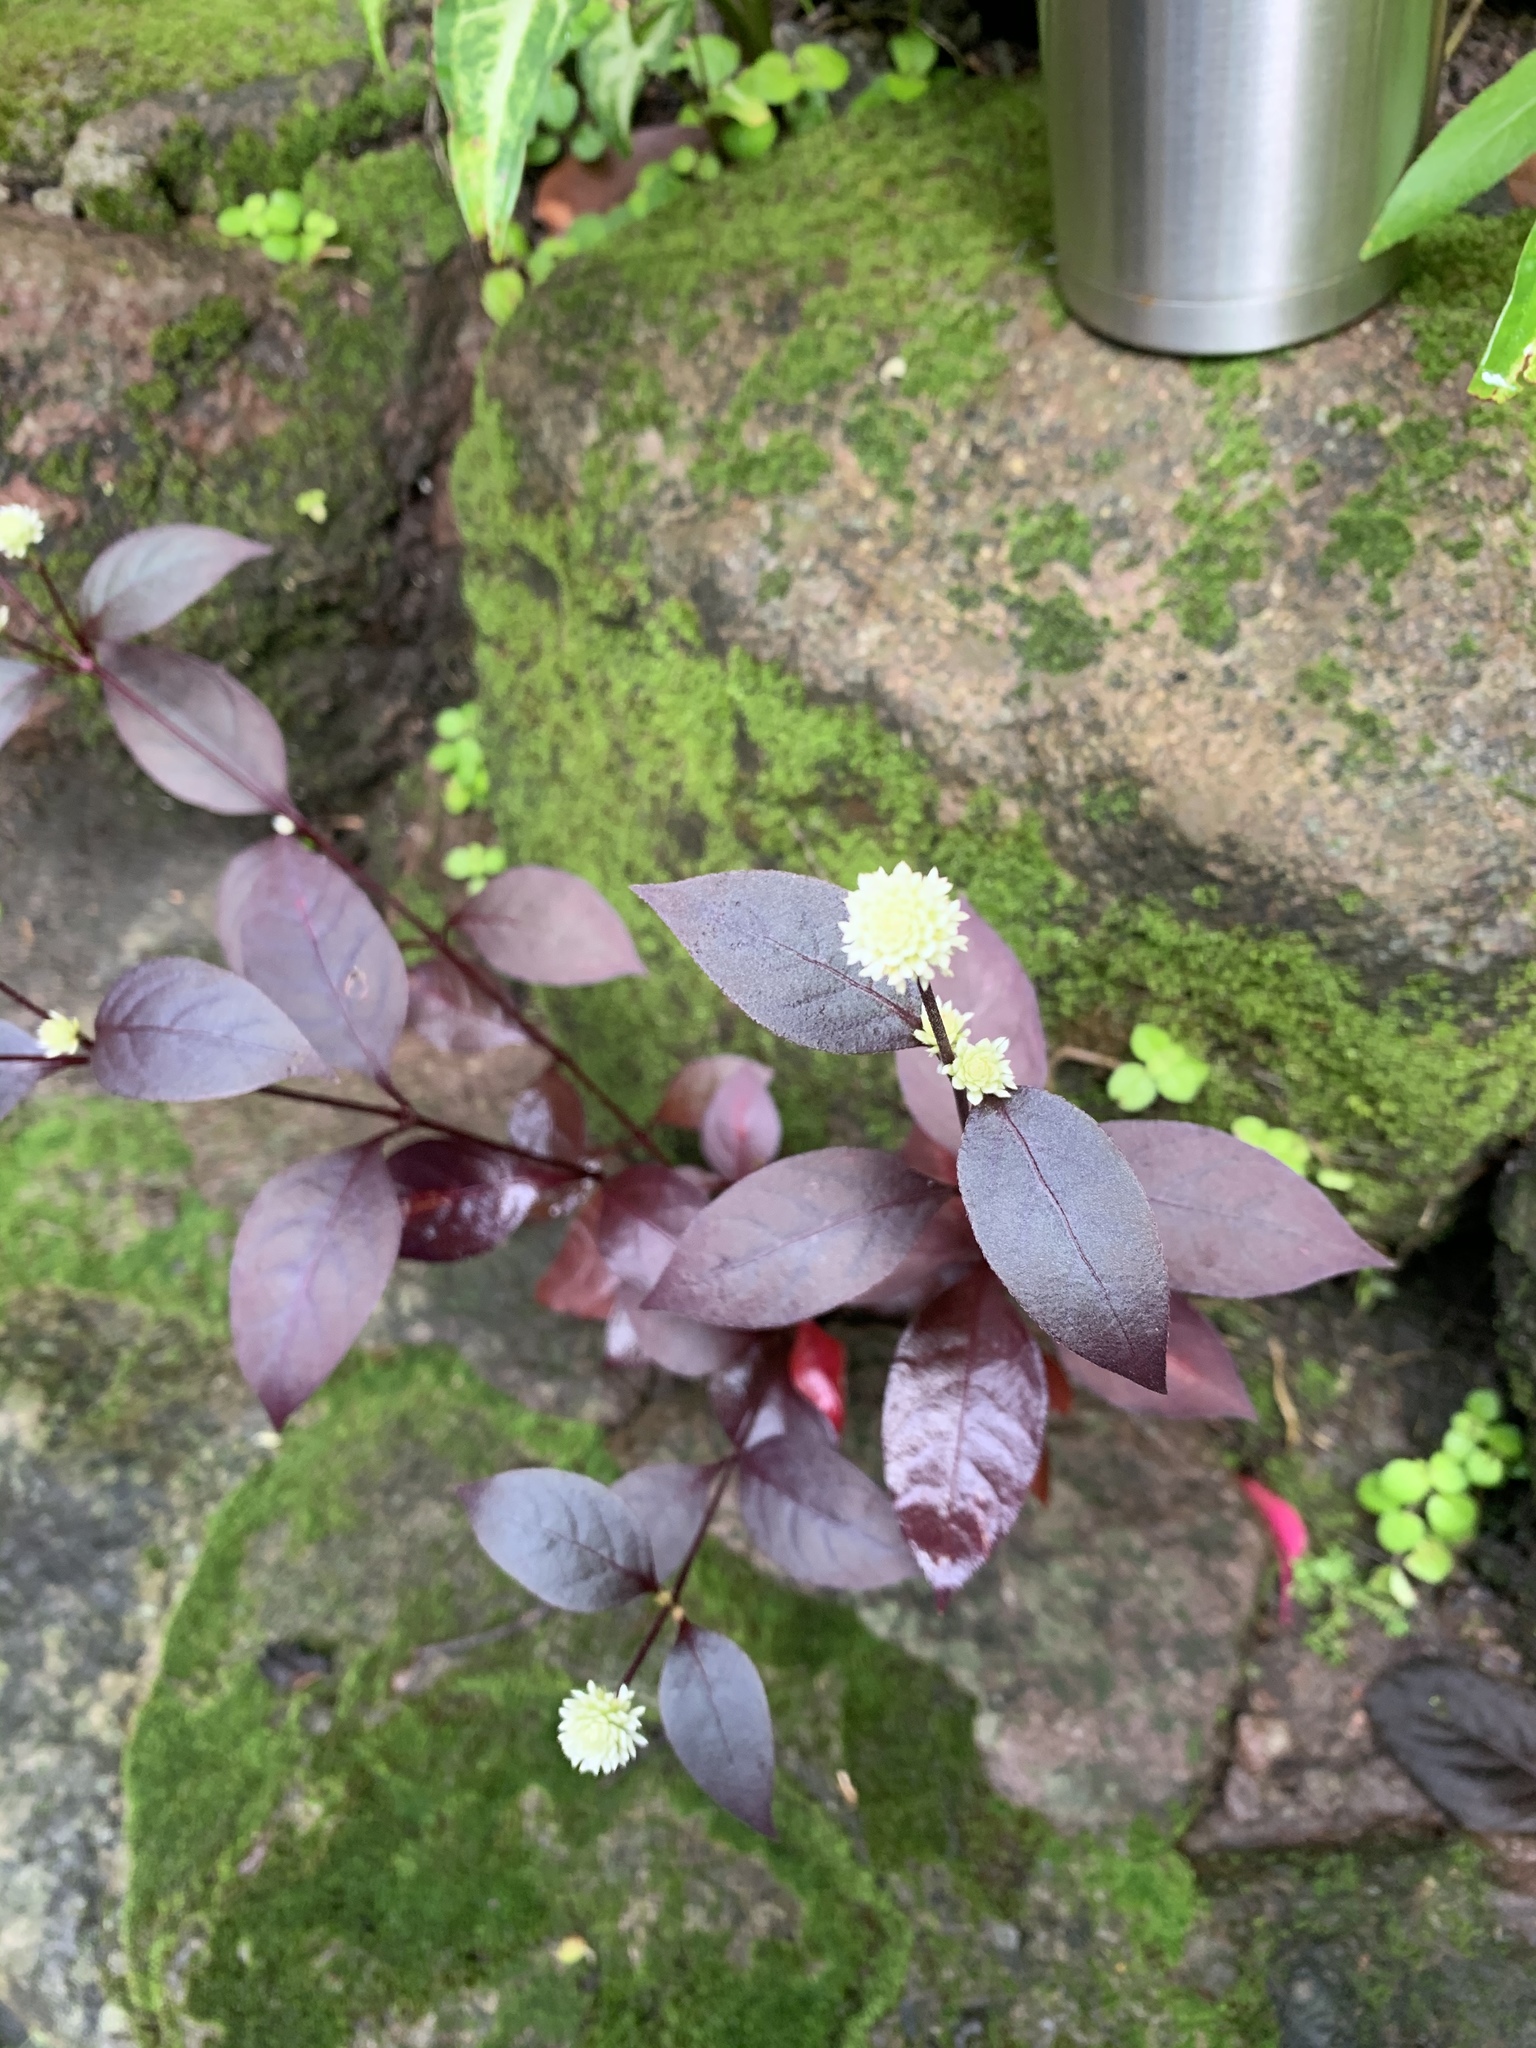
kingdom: Plantae
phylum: Tracheophyta
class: Magnoliopsida
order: Caryophyllales
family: Amaranthaceae
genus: Alternanthera
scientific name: Alternanthera brasiliana
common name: Brazilian joyweed
